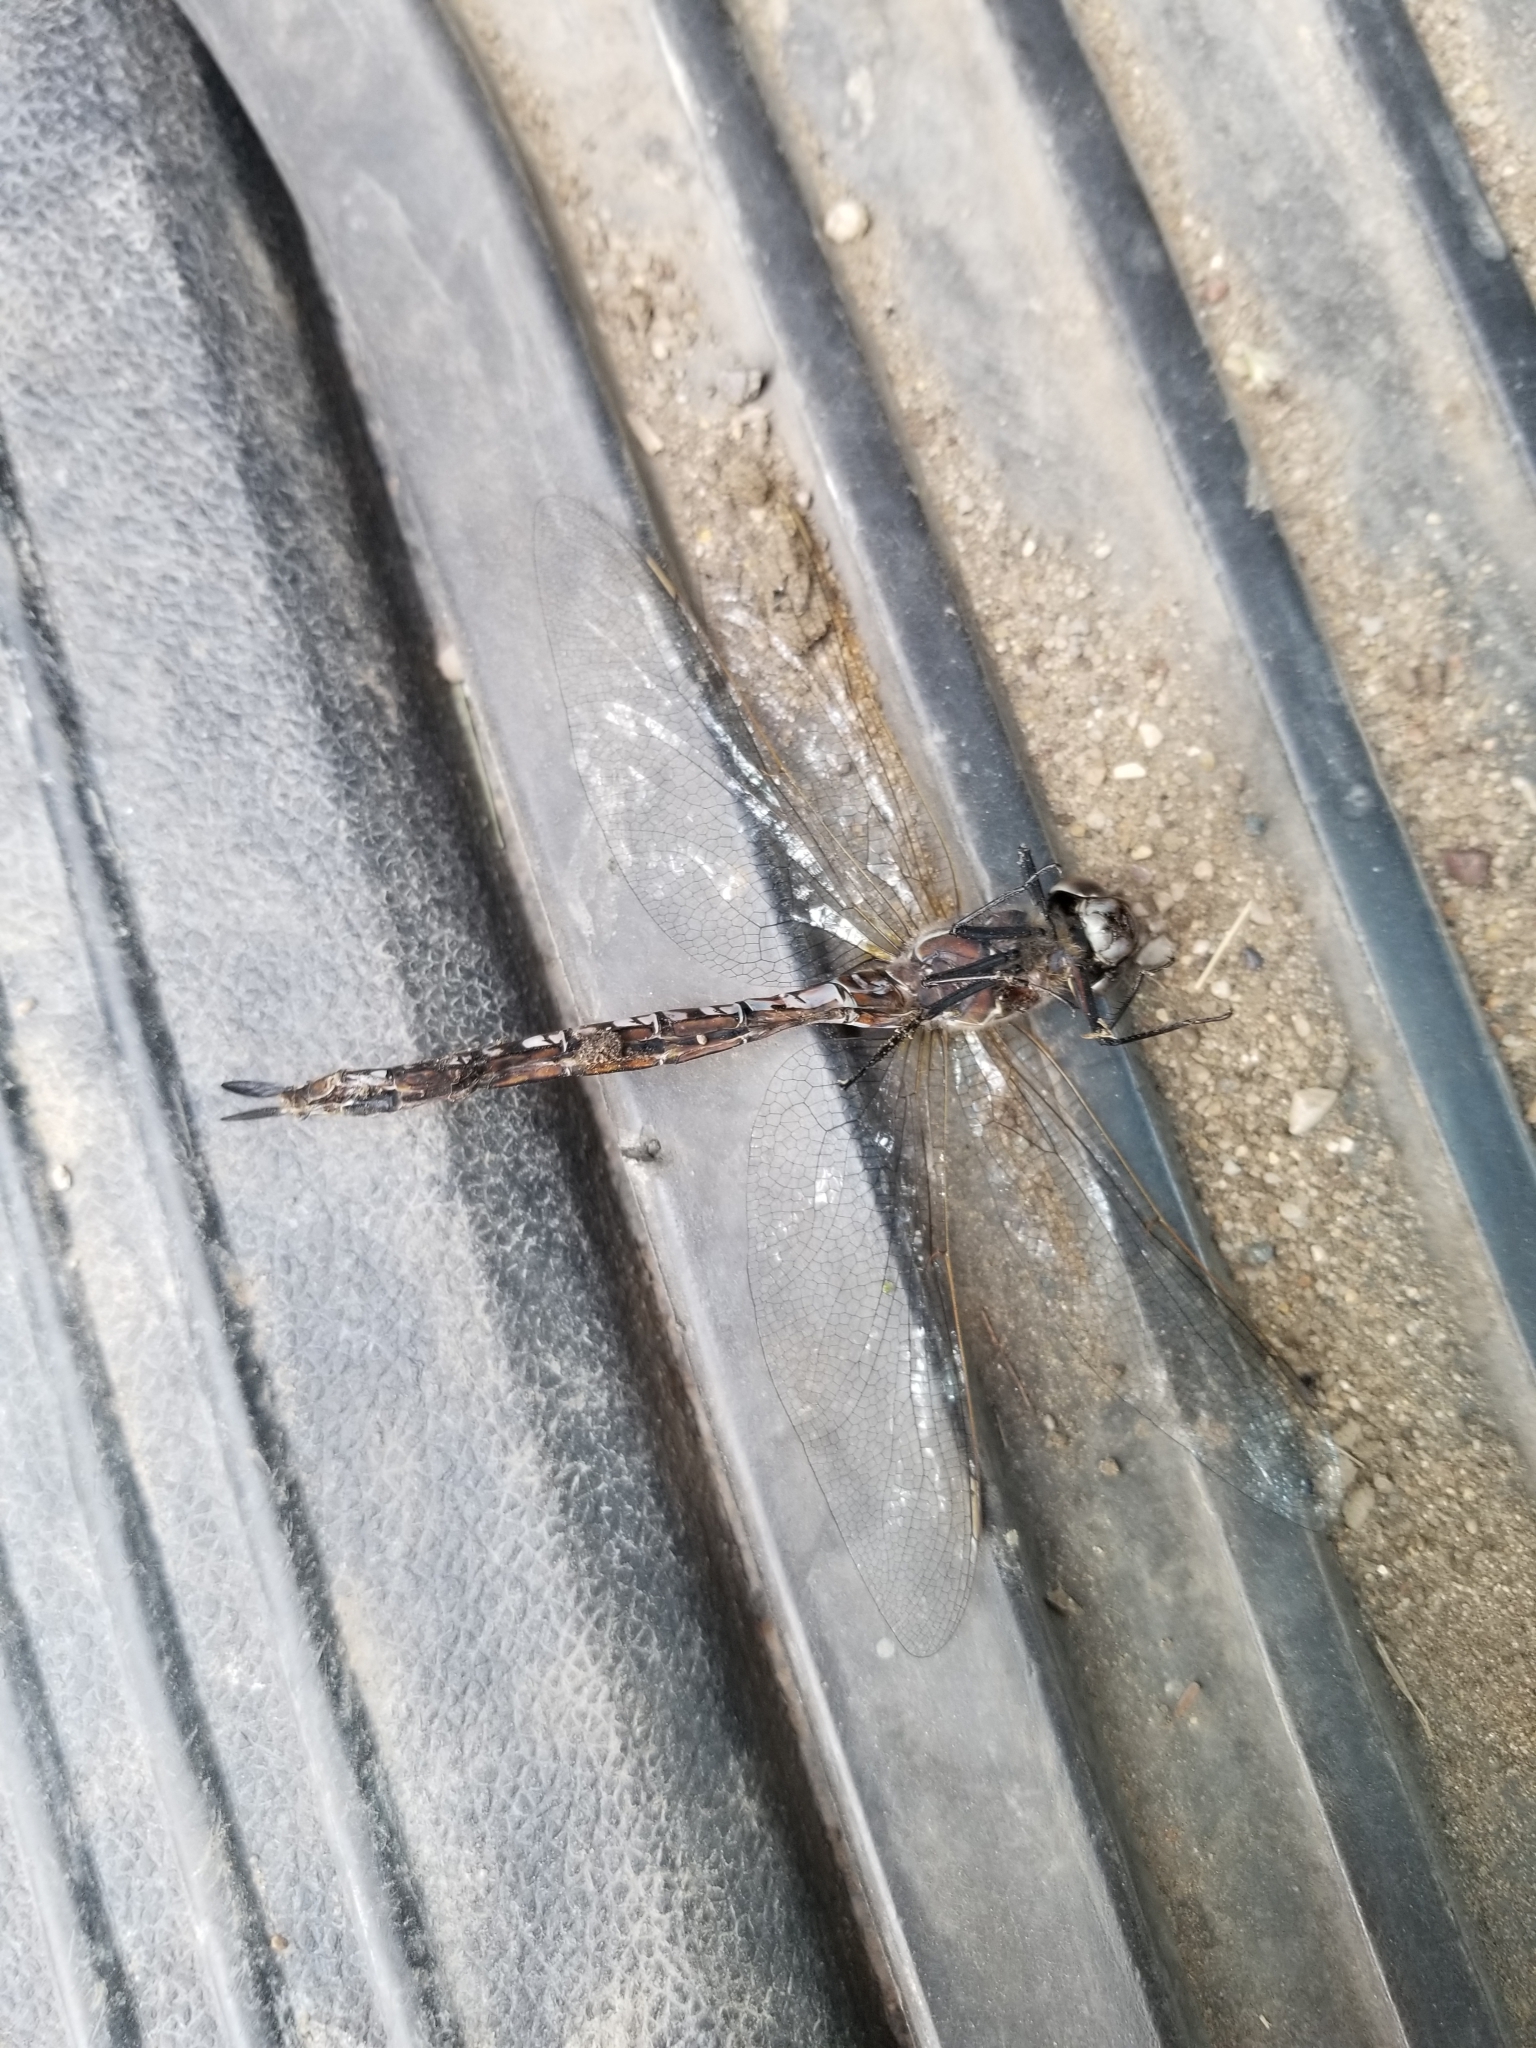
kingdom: Animalia
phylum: Arthropoda
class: Insecta
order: Odonata
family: Aeshnidae
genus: Aeshna
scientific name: Aeshna interrupta
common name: Variable darner
